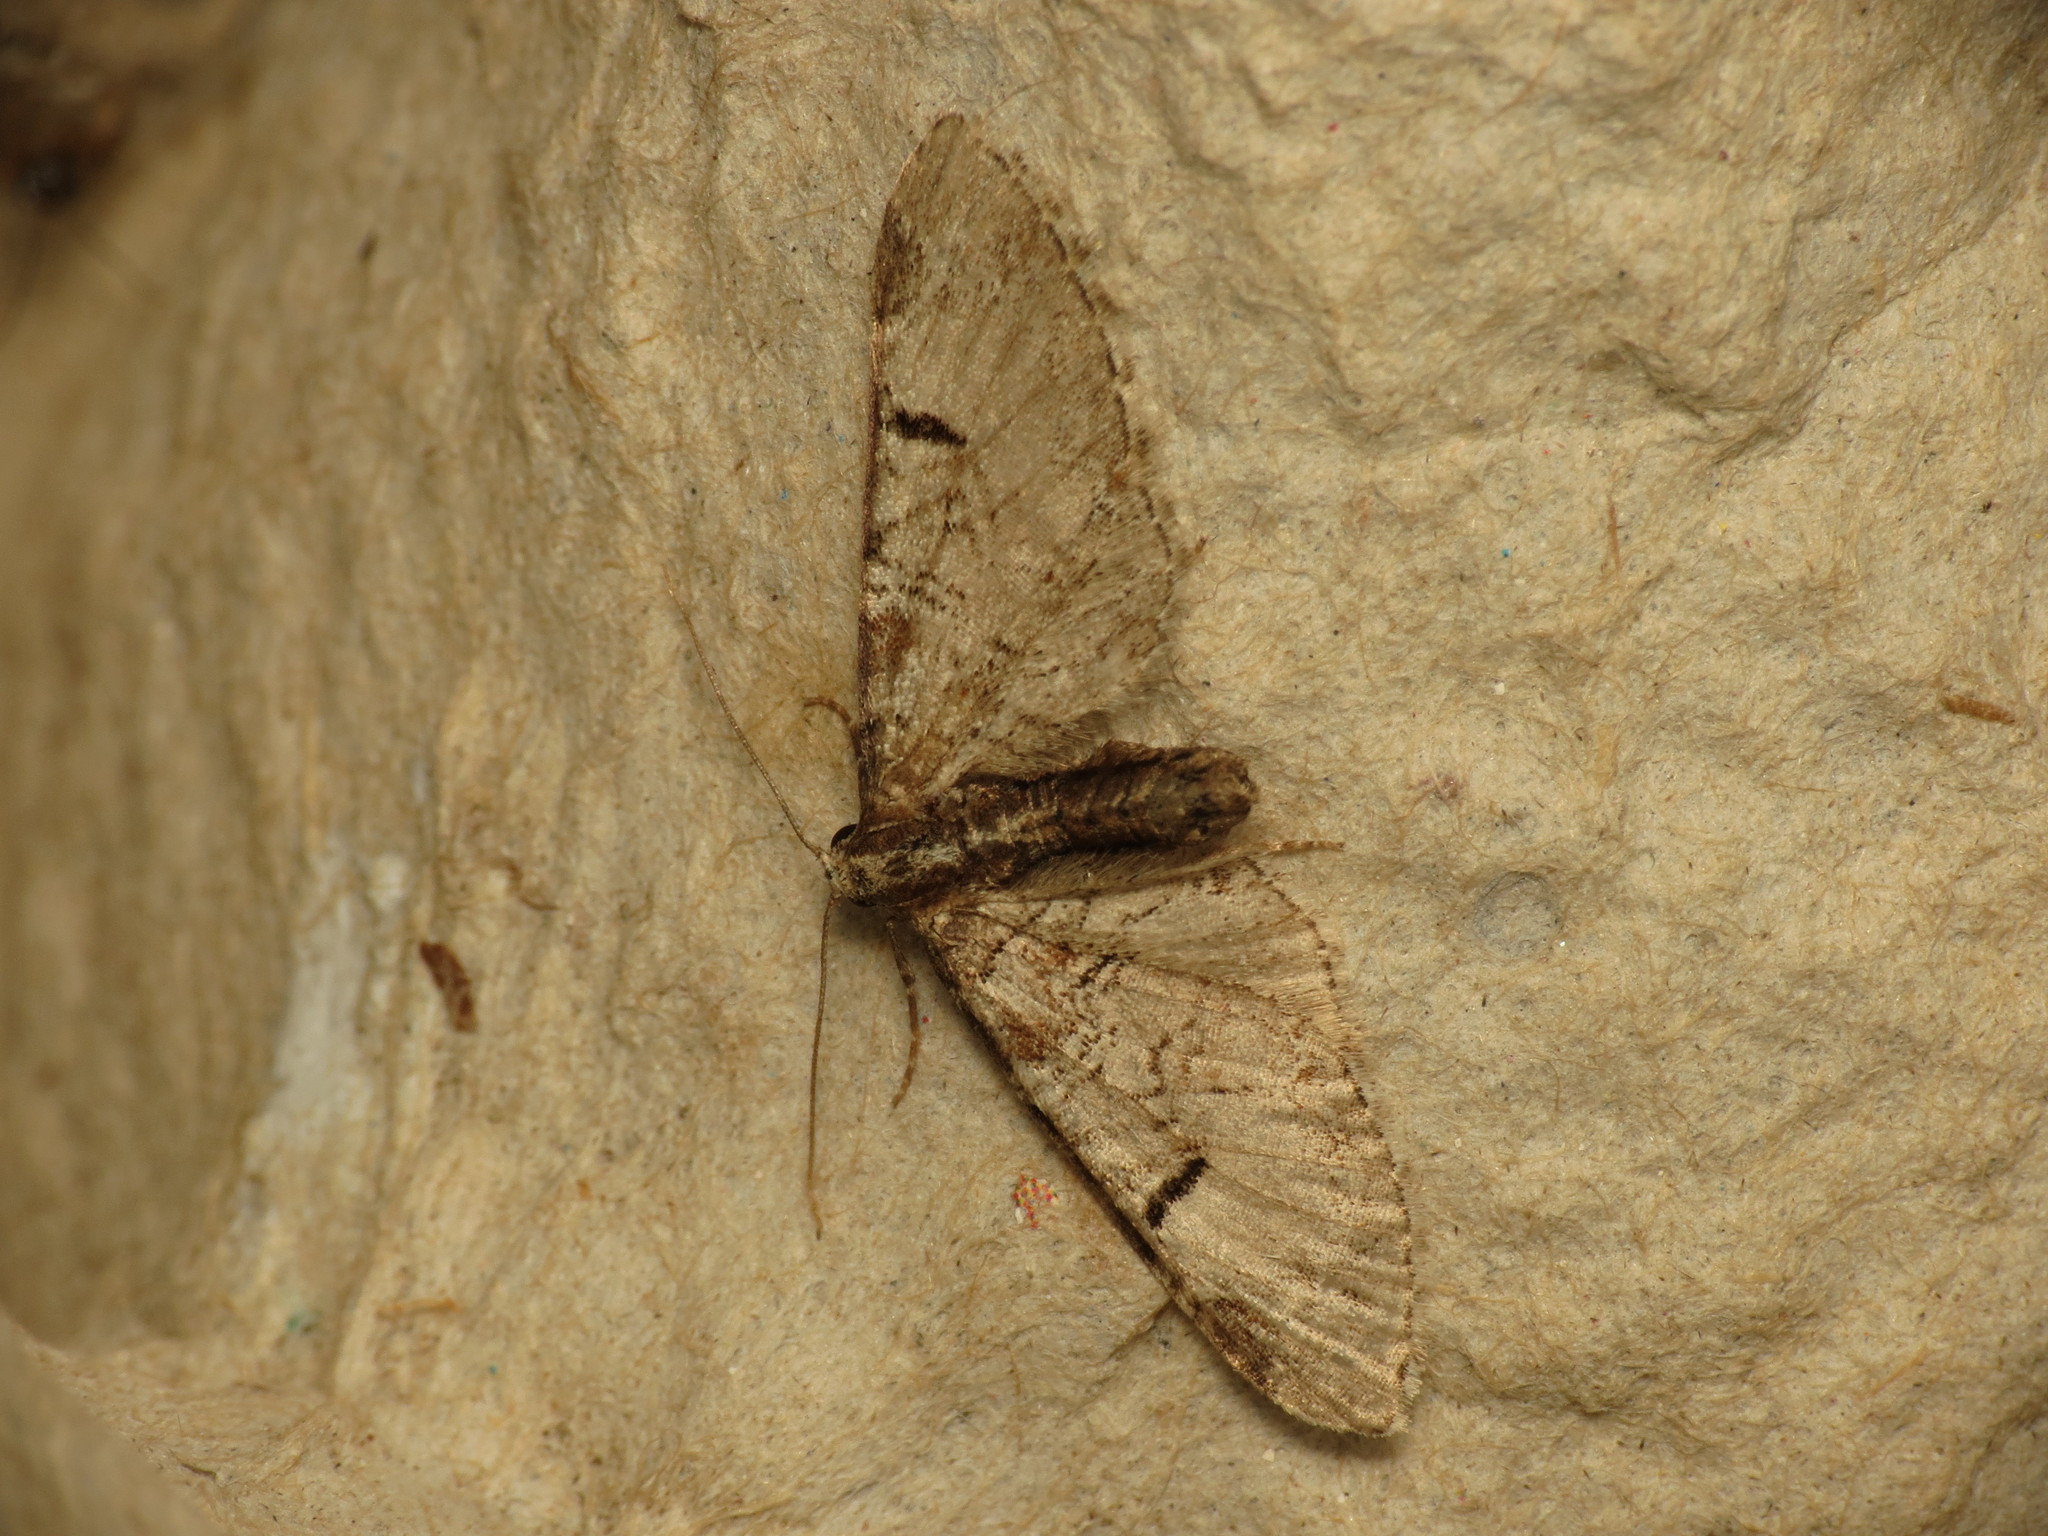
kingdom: Animalia
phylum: Arthropoda
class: Insecta
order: Lepidoptera
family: Geometridae
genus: Eupithecia
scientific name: Eupithecia insigniata
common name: Pinion-spotted pug
